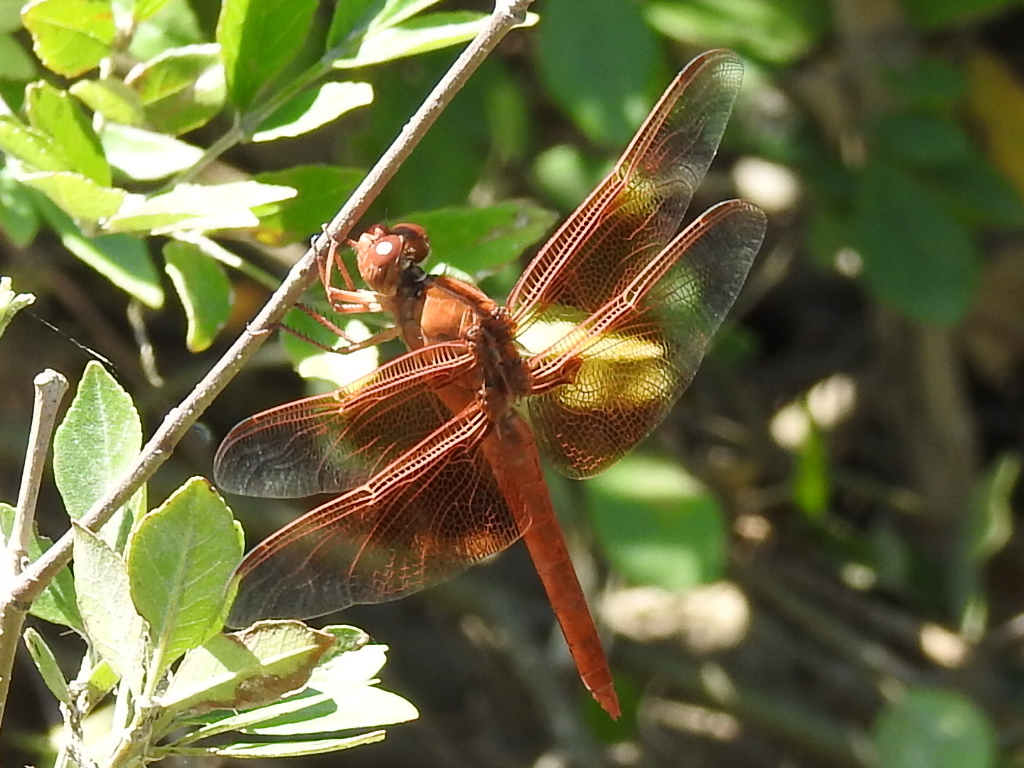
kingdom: Animalia
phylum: Arthropoda
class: Insecta
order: Odonata
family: Libellulidae
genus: Libellula
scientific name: Libellula saturata
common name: Flame skimmer
